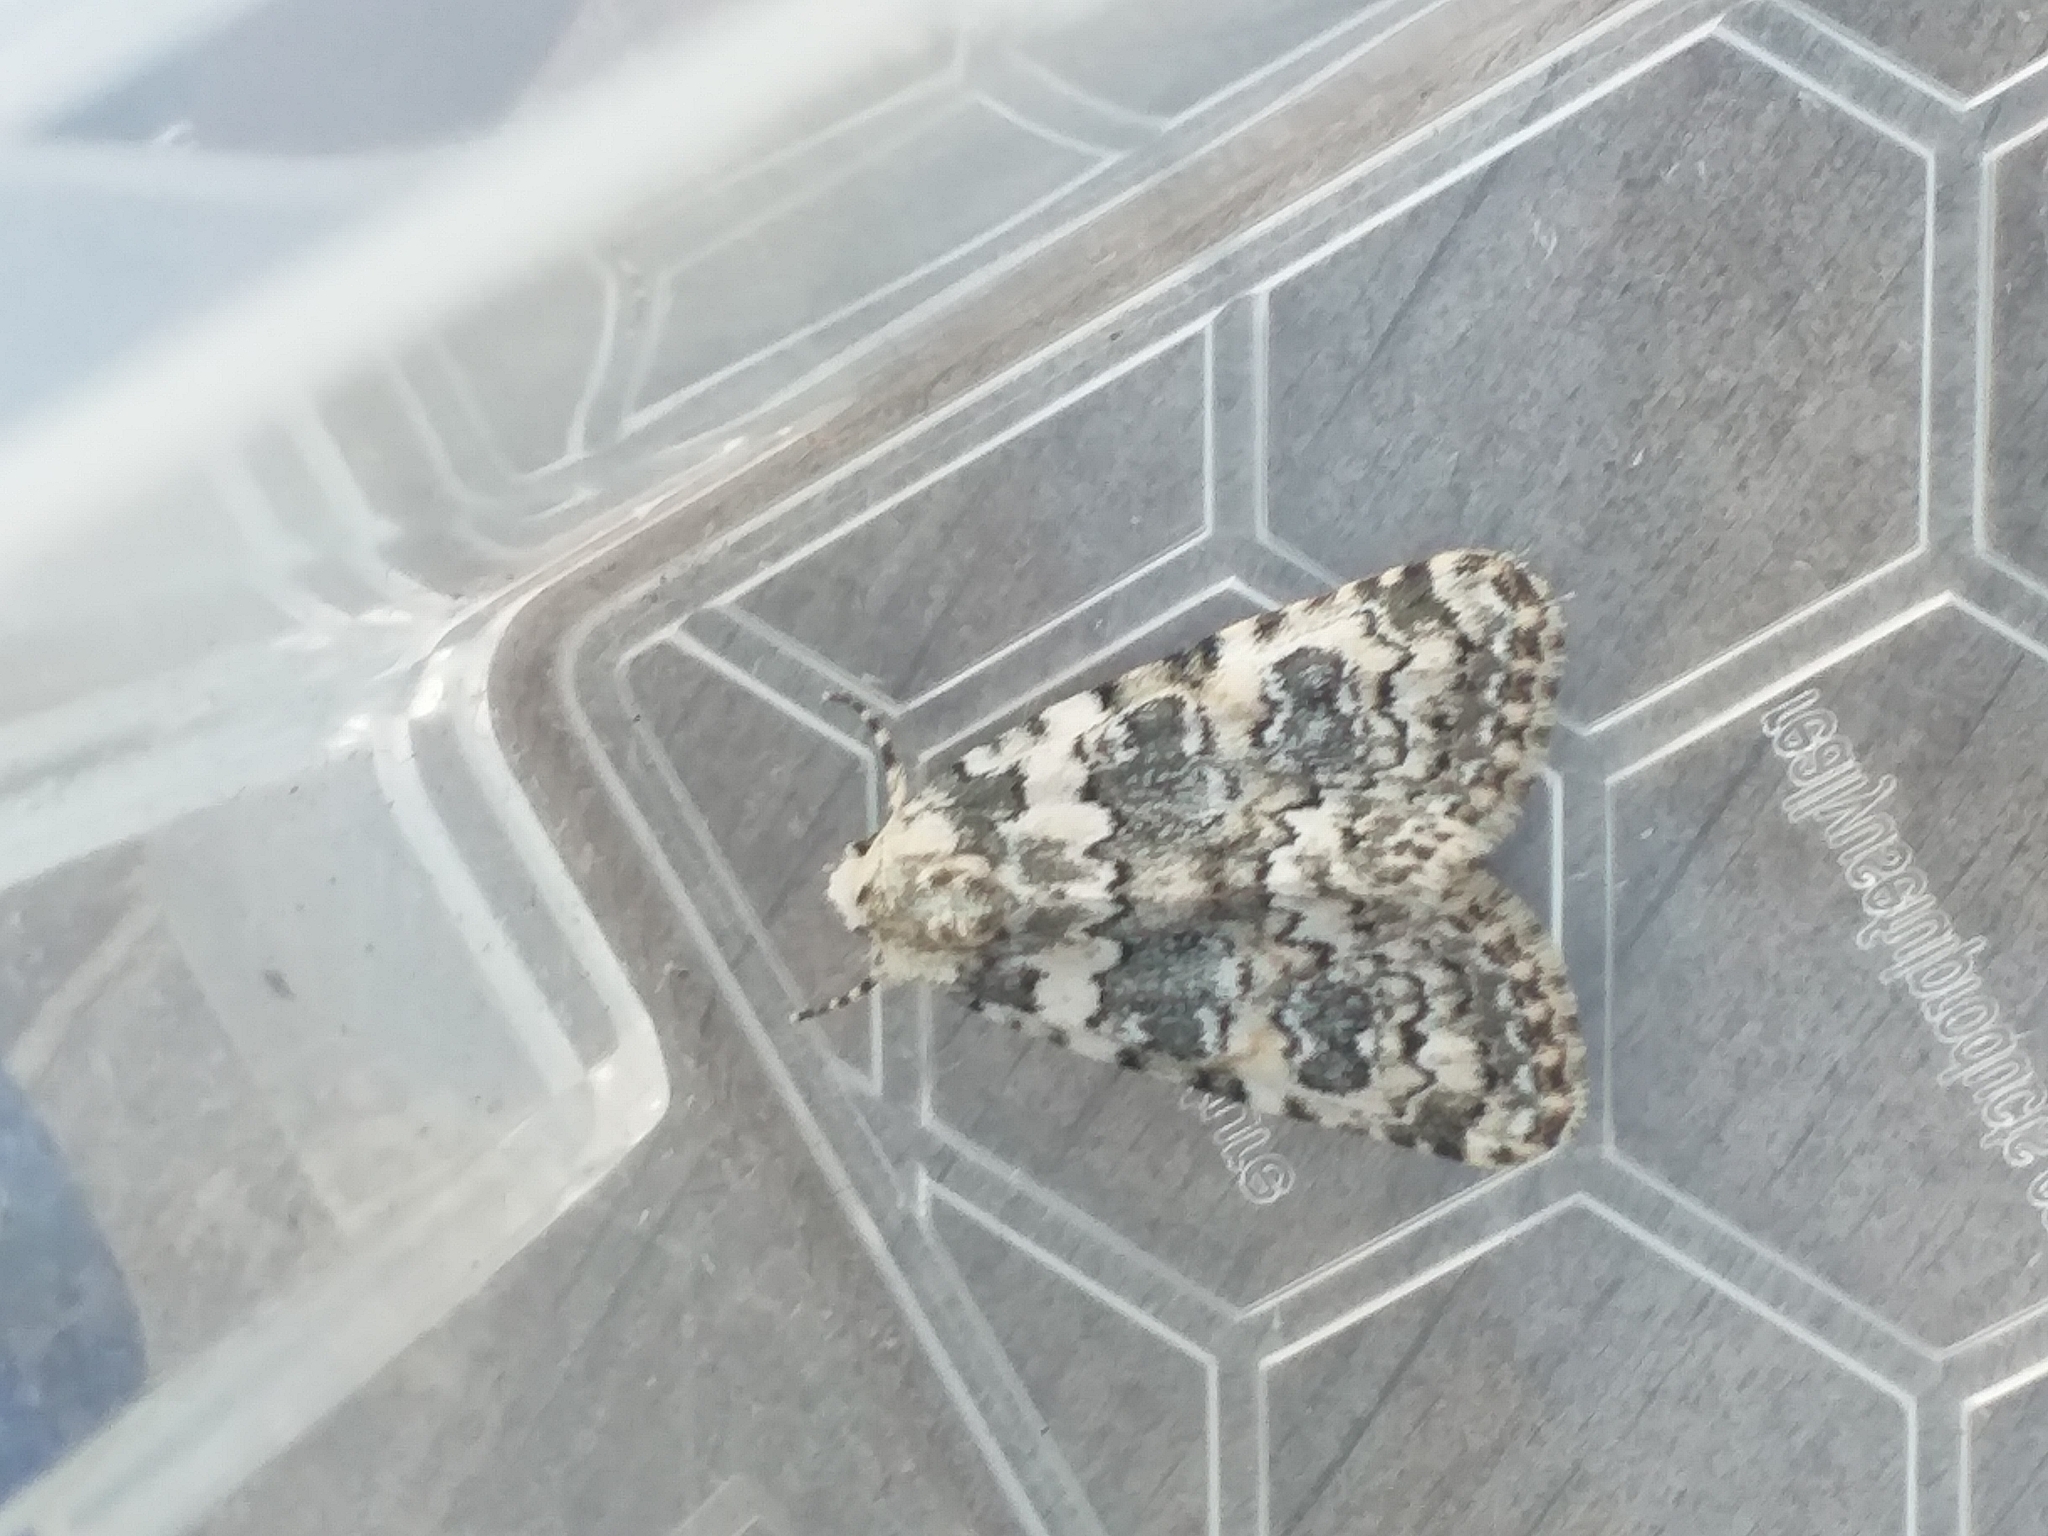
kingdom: Animalia
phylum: Arthropoda
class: Insecta
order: Lepidoptera
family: Noctuidae
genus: Bryophila
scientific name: Bryophila domestica
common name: Marbled beauty
